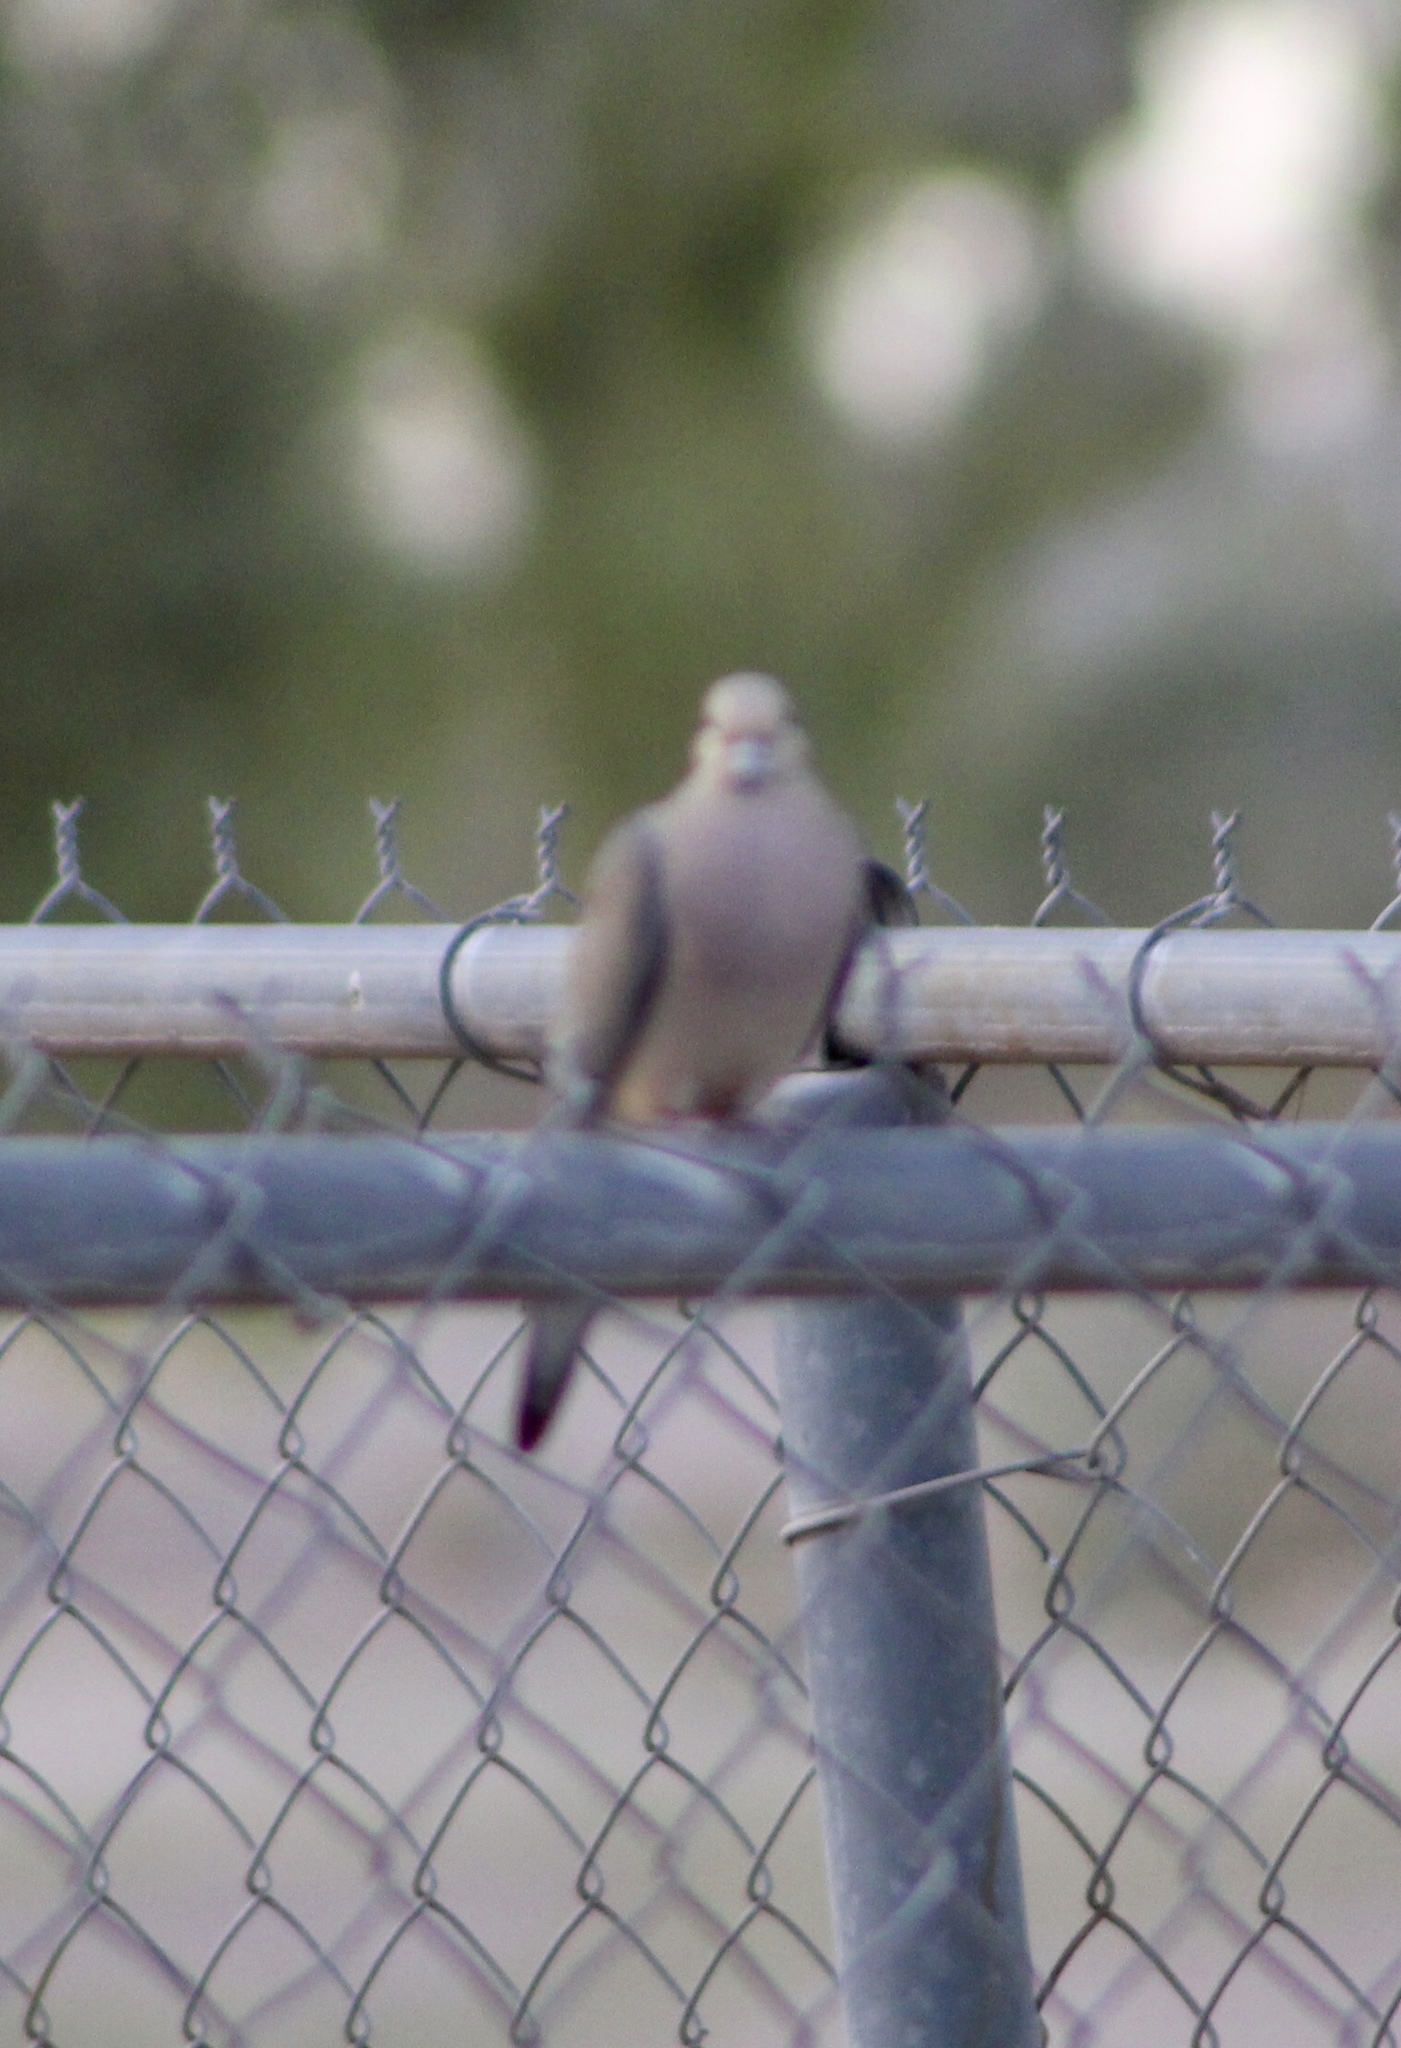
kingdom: Animalia
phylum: Chordata
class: Aves
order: Columbiformes
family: Columbidae
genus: Zenaida
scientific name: Zenaida macroura
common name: Mourning dove
